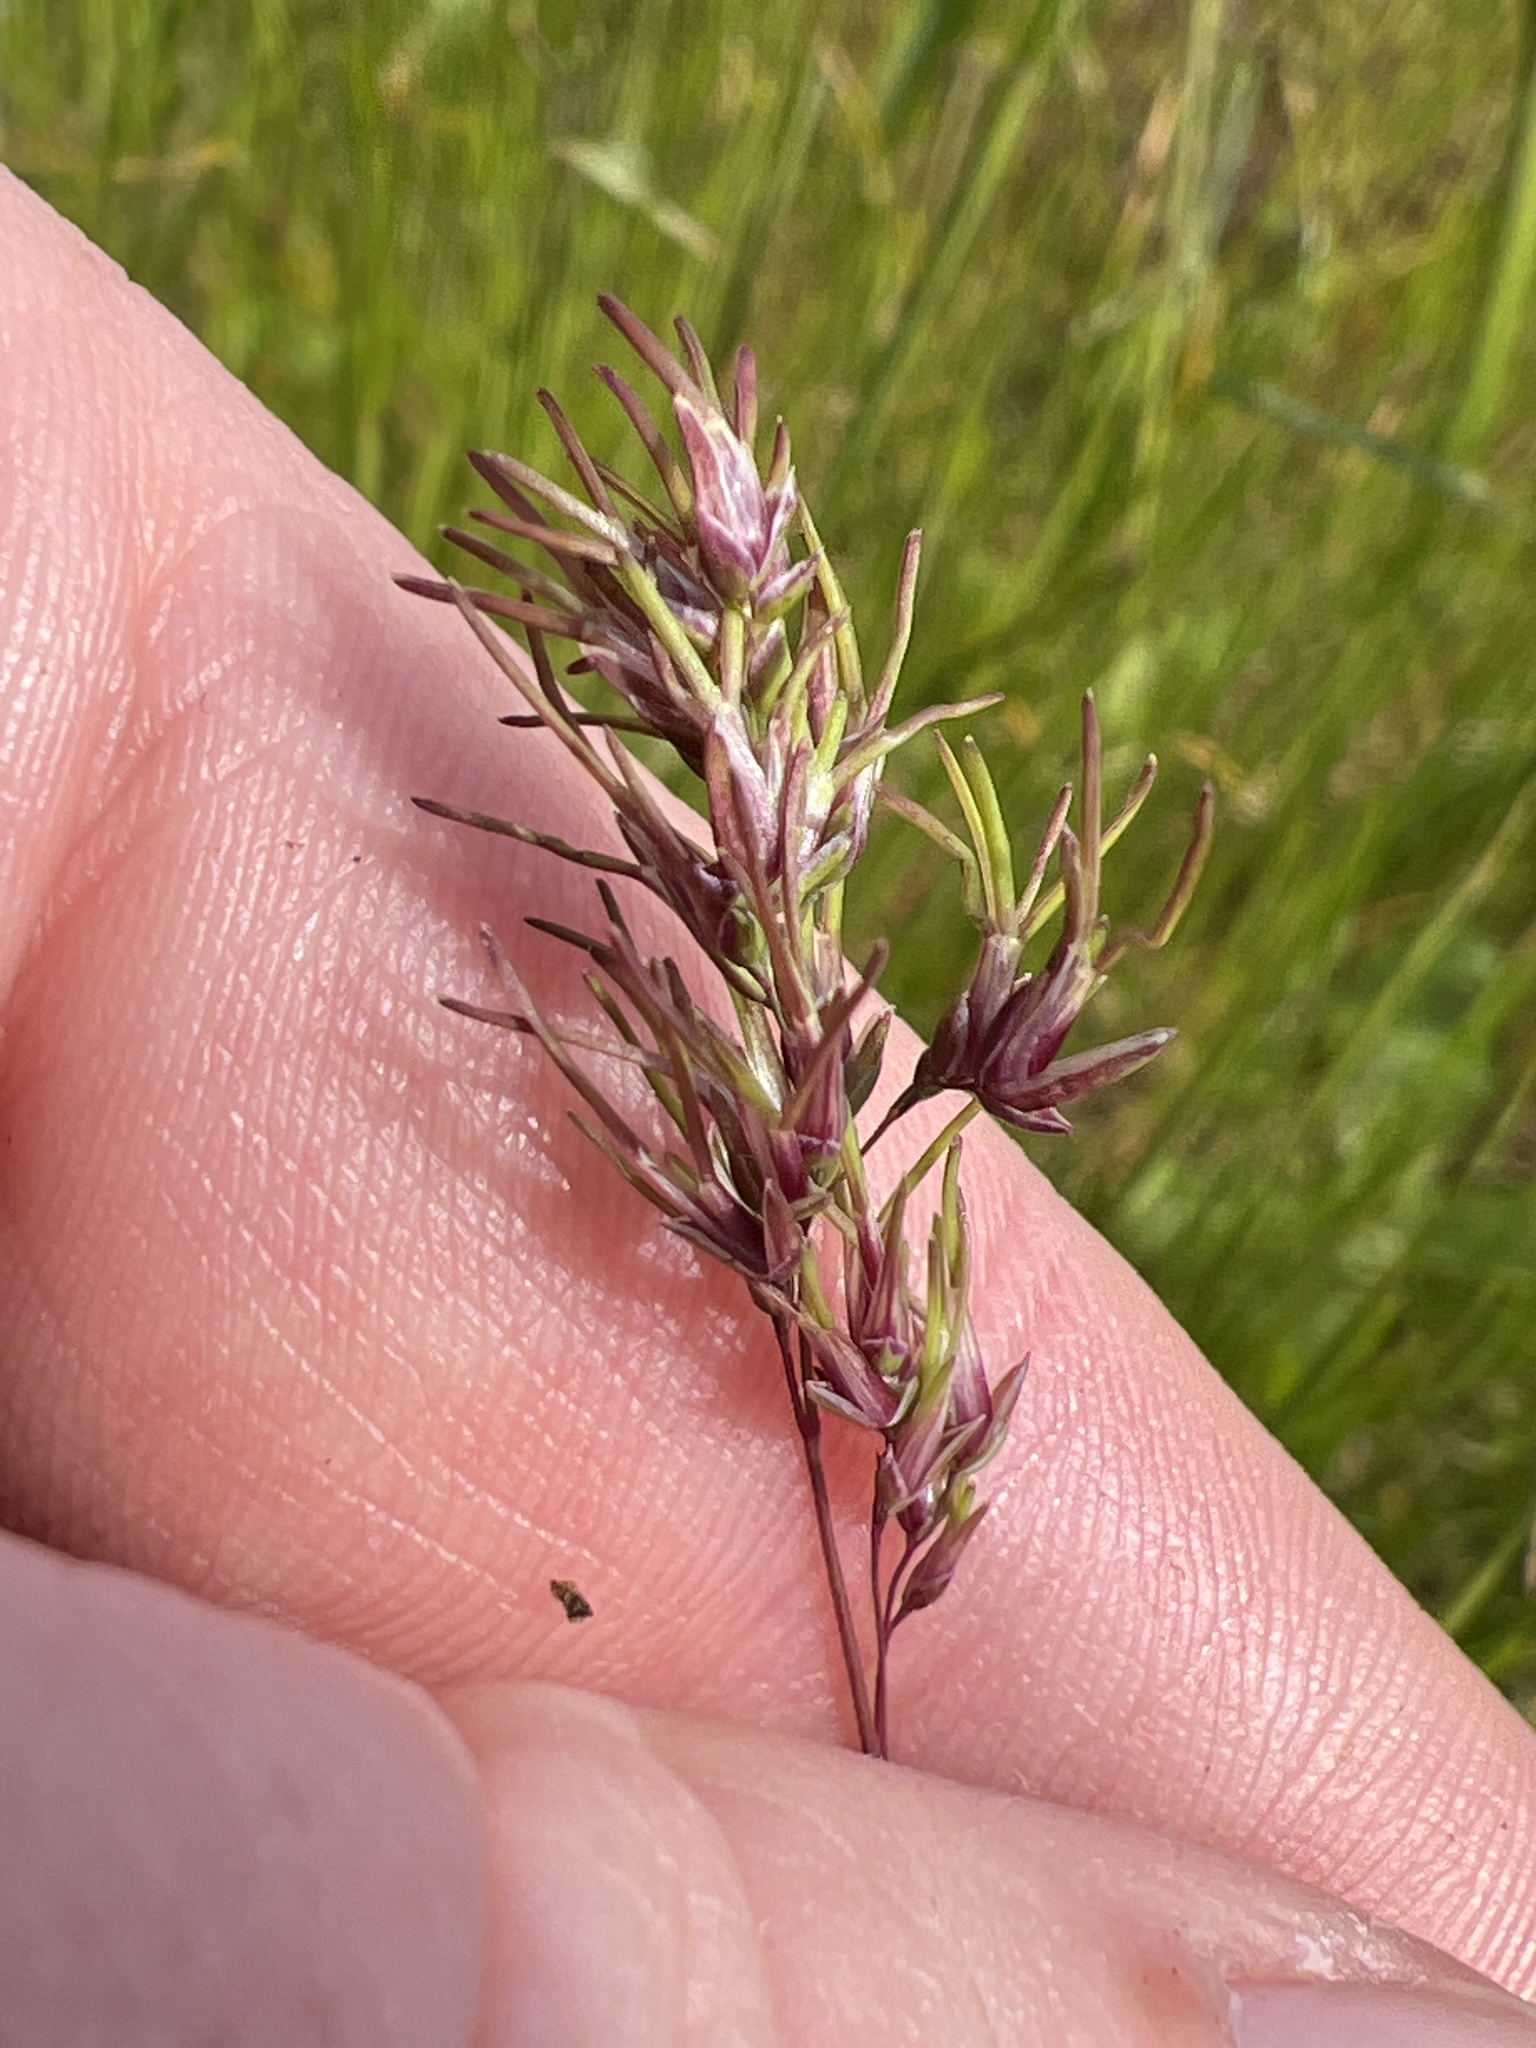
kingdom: Plantae
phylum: Tracheophyta
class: Liliopsida
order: Poales
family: Poaceae
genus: Poa
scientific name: Poa bulbosa
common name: Bulbous bluegrass
